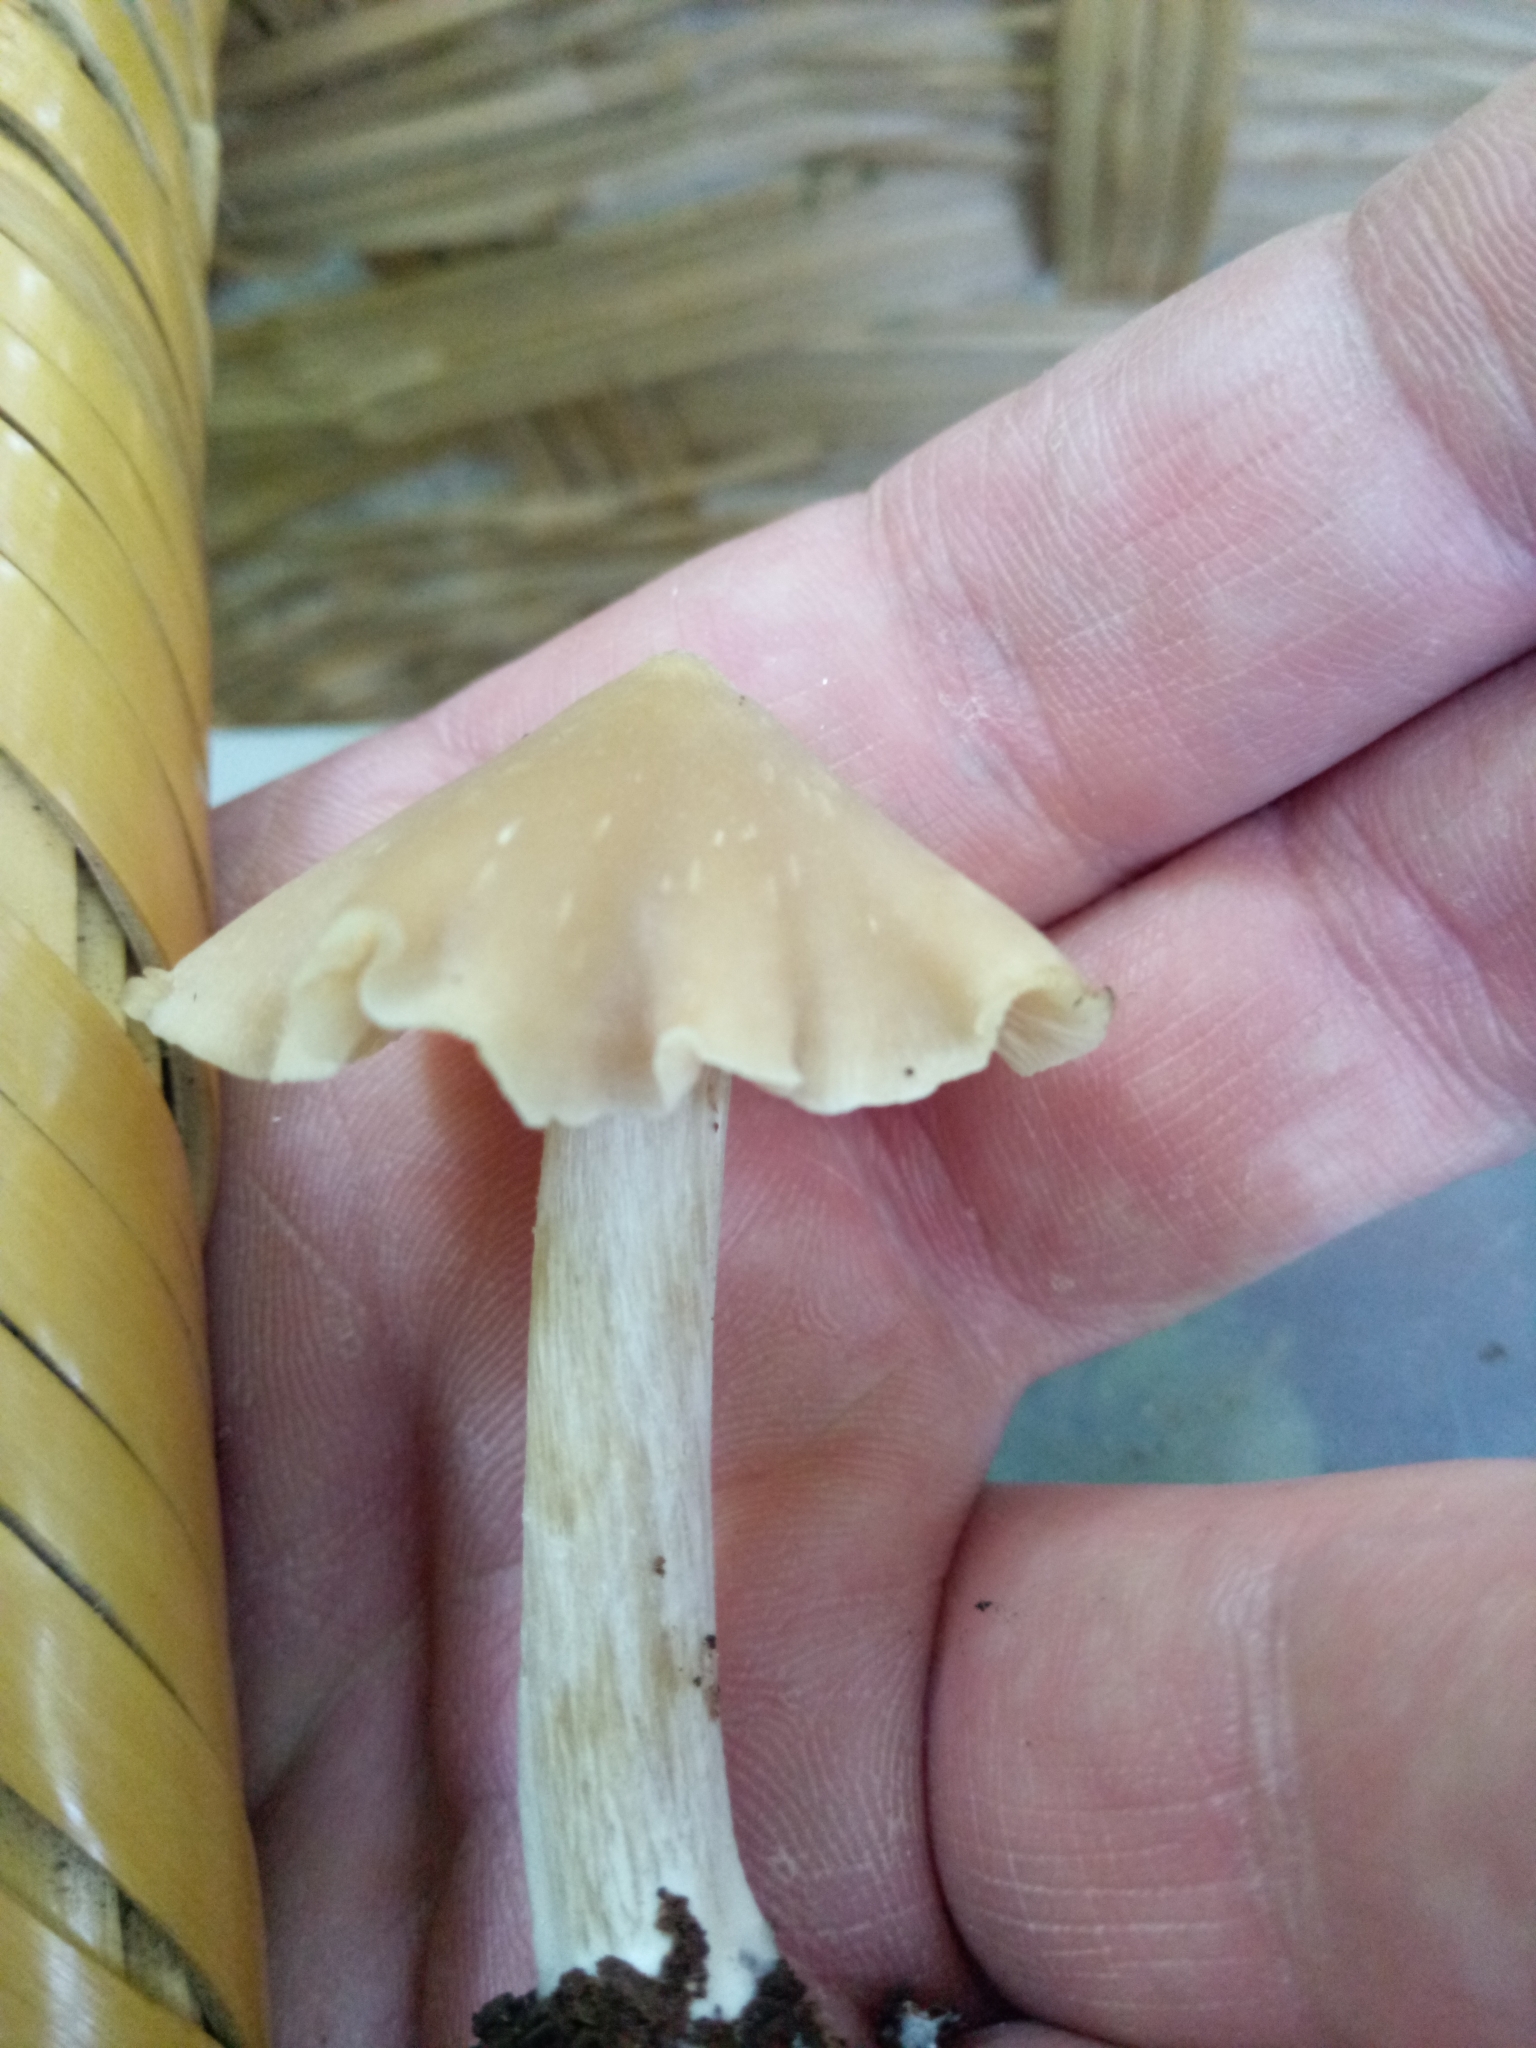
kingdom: Fungi
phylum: Basidiomycota
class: Agaricomycetes
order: Agaricales
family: Entolomataceae
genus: Entoloma
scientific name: Entoloma strictius
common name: Straight-stalked entoloma
